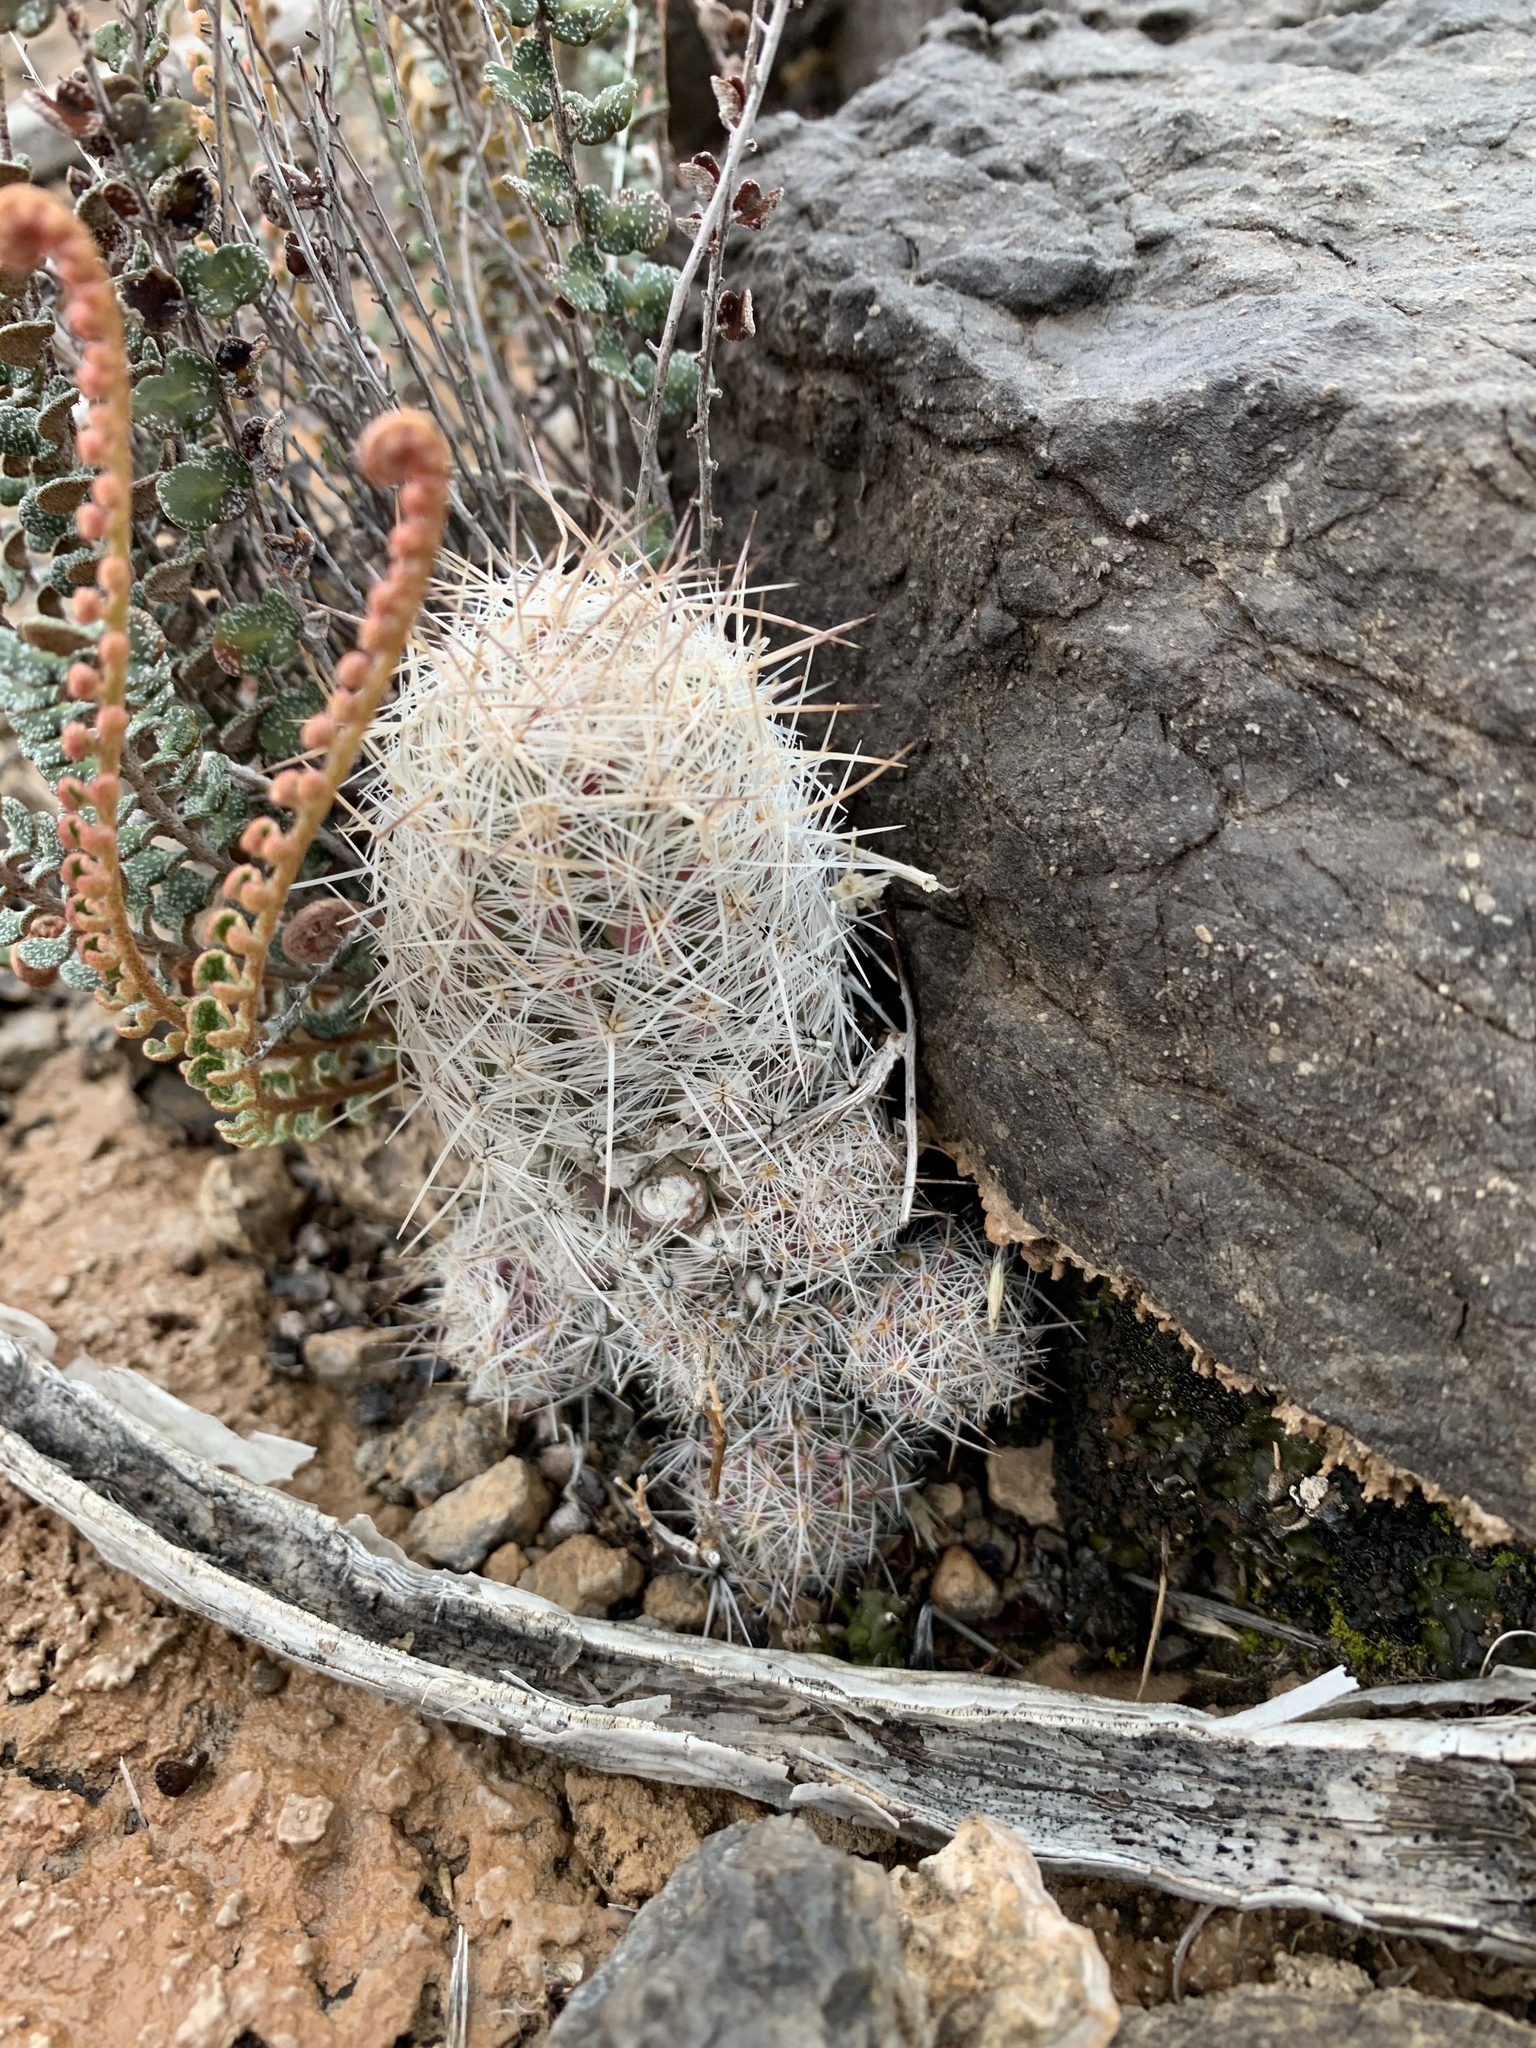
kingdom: Plantae
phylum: Tracheophyta
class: Magnoliopsida
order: Caryophyllales
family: Cactaceae
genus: Pelecyphora
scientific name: Pelecyphora tuberculosa
